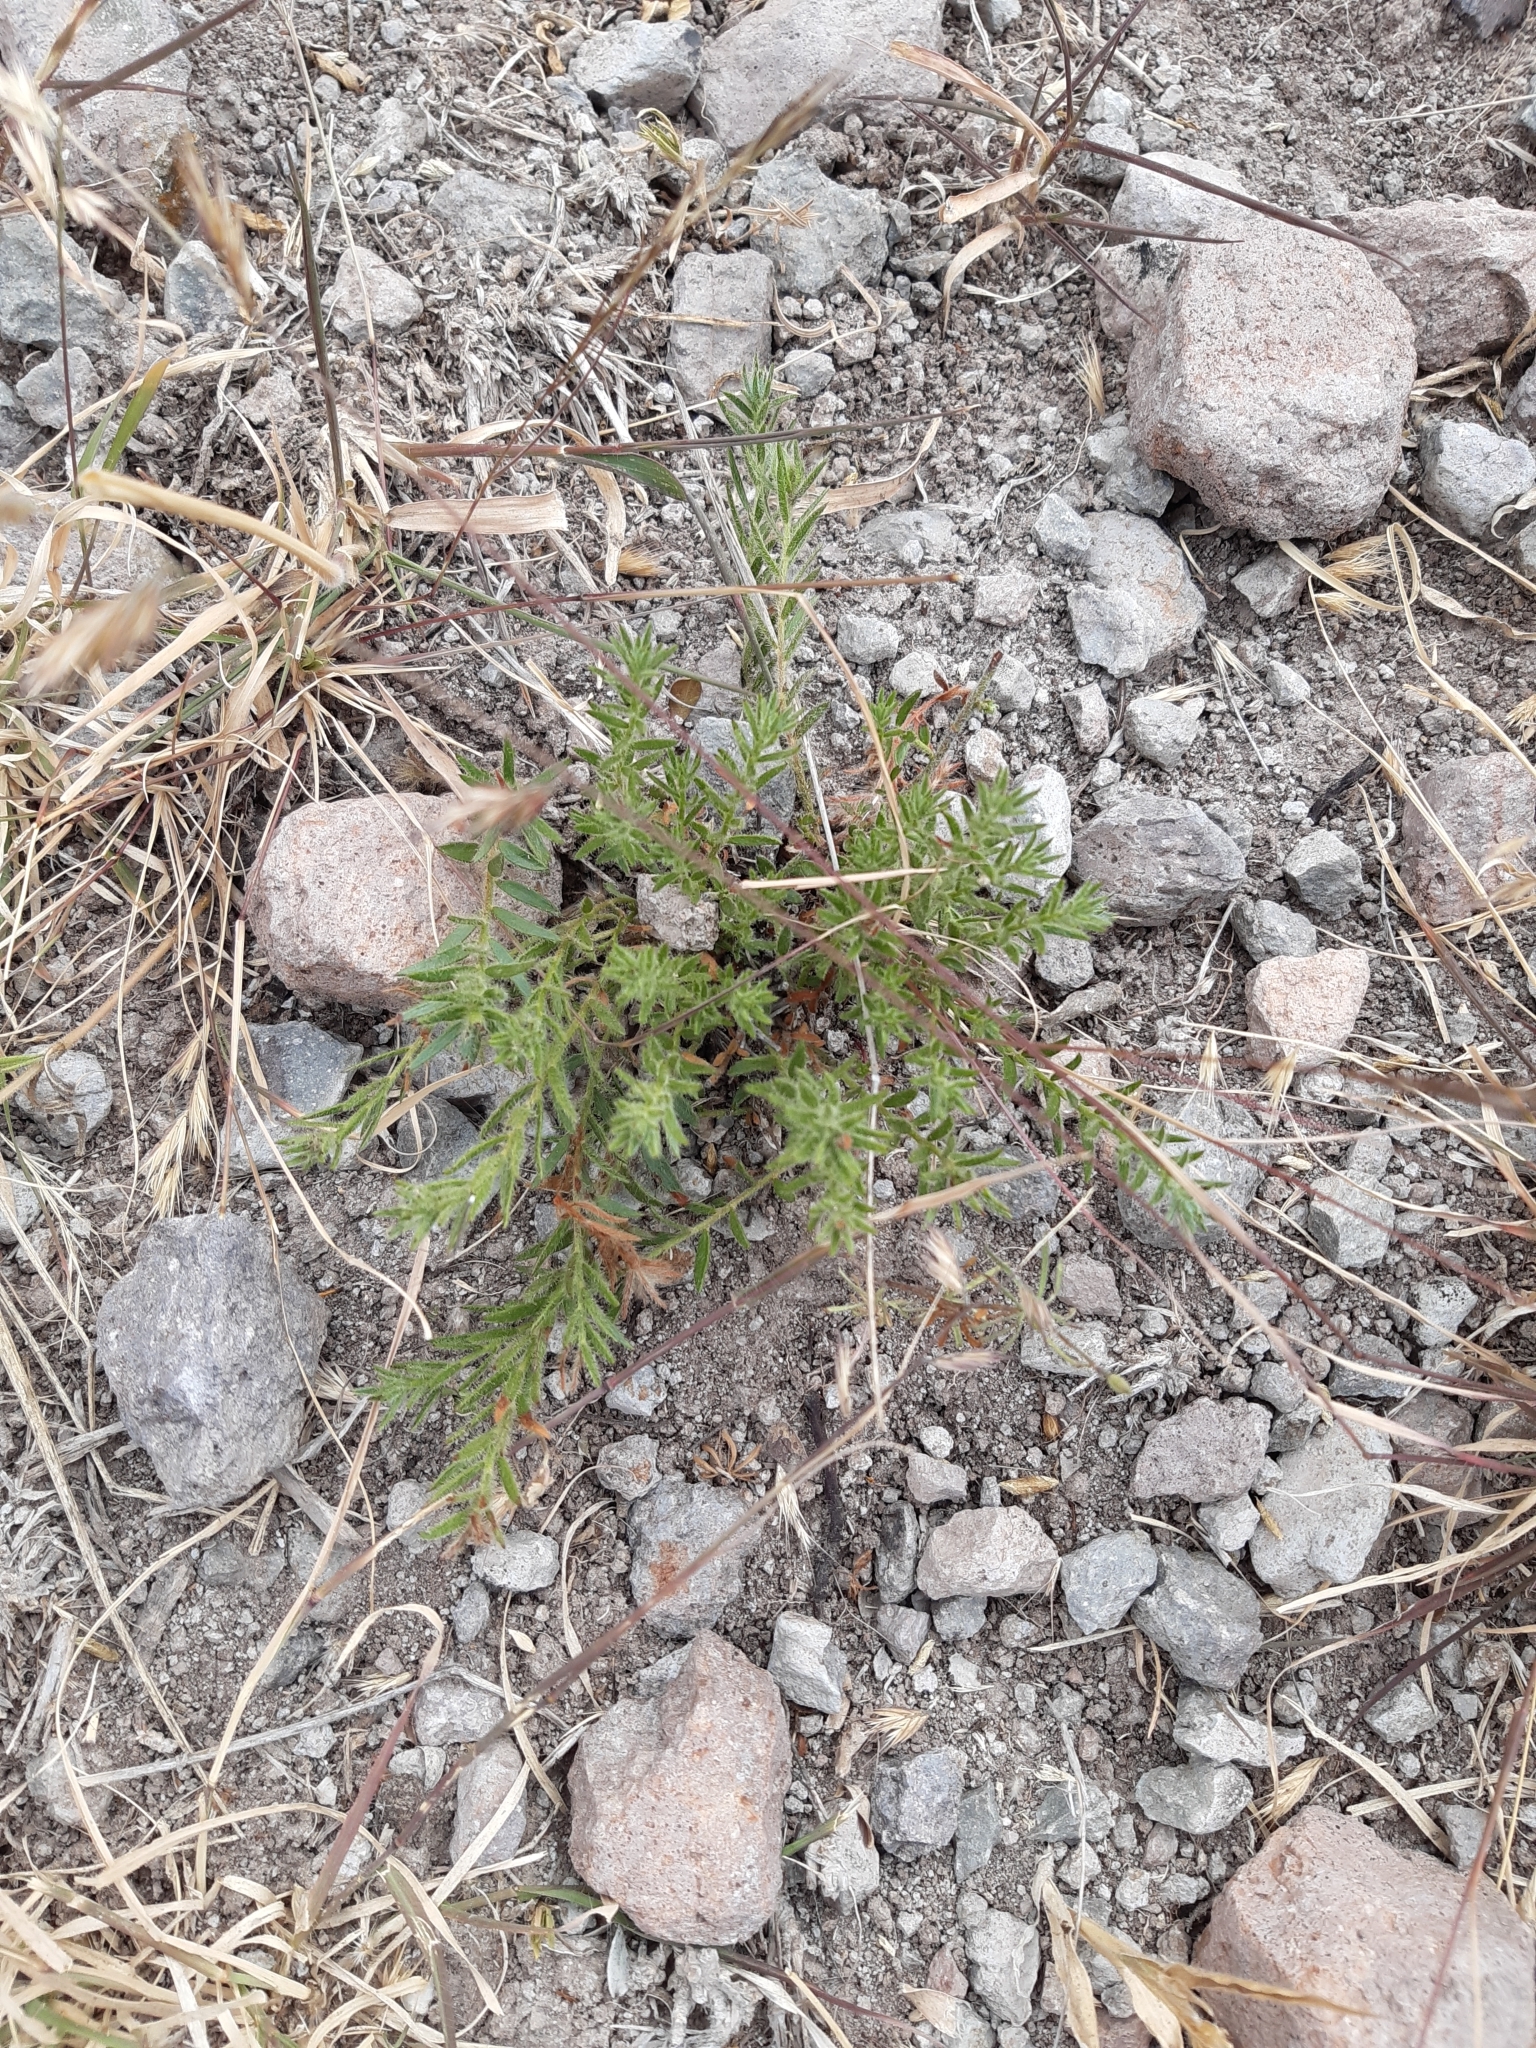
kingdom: Plantae
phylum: Tracheophyta
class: Magnoliopsida
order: Zygophyllales
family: Krameriaceae
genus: Krameria
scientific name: Krameria pauciflora
